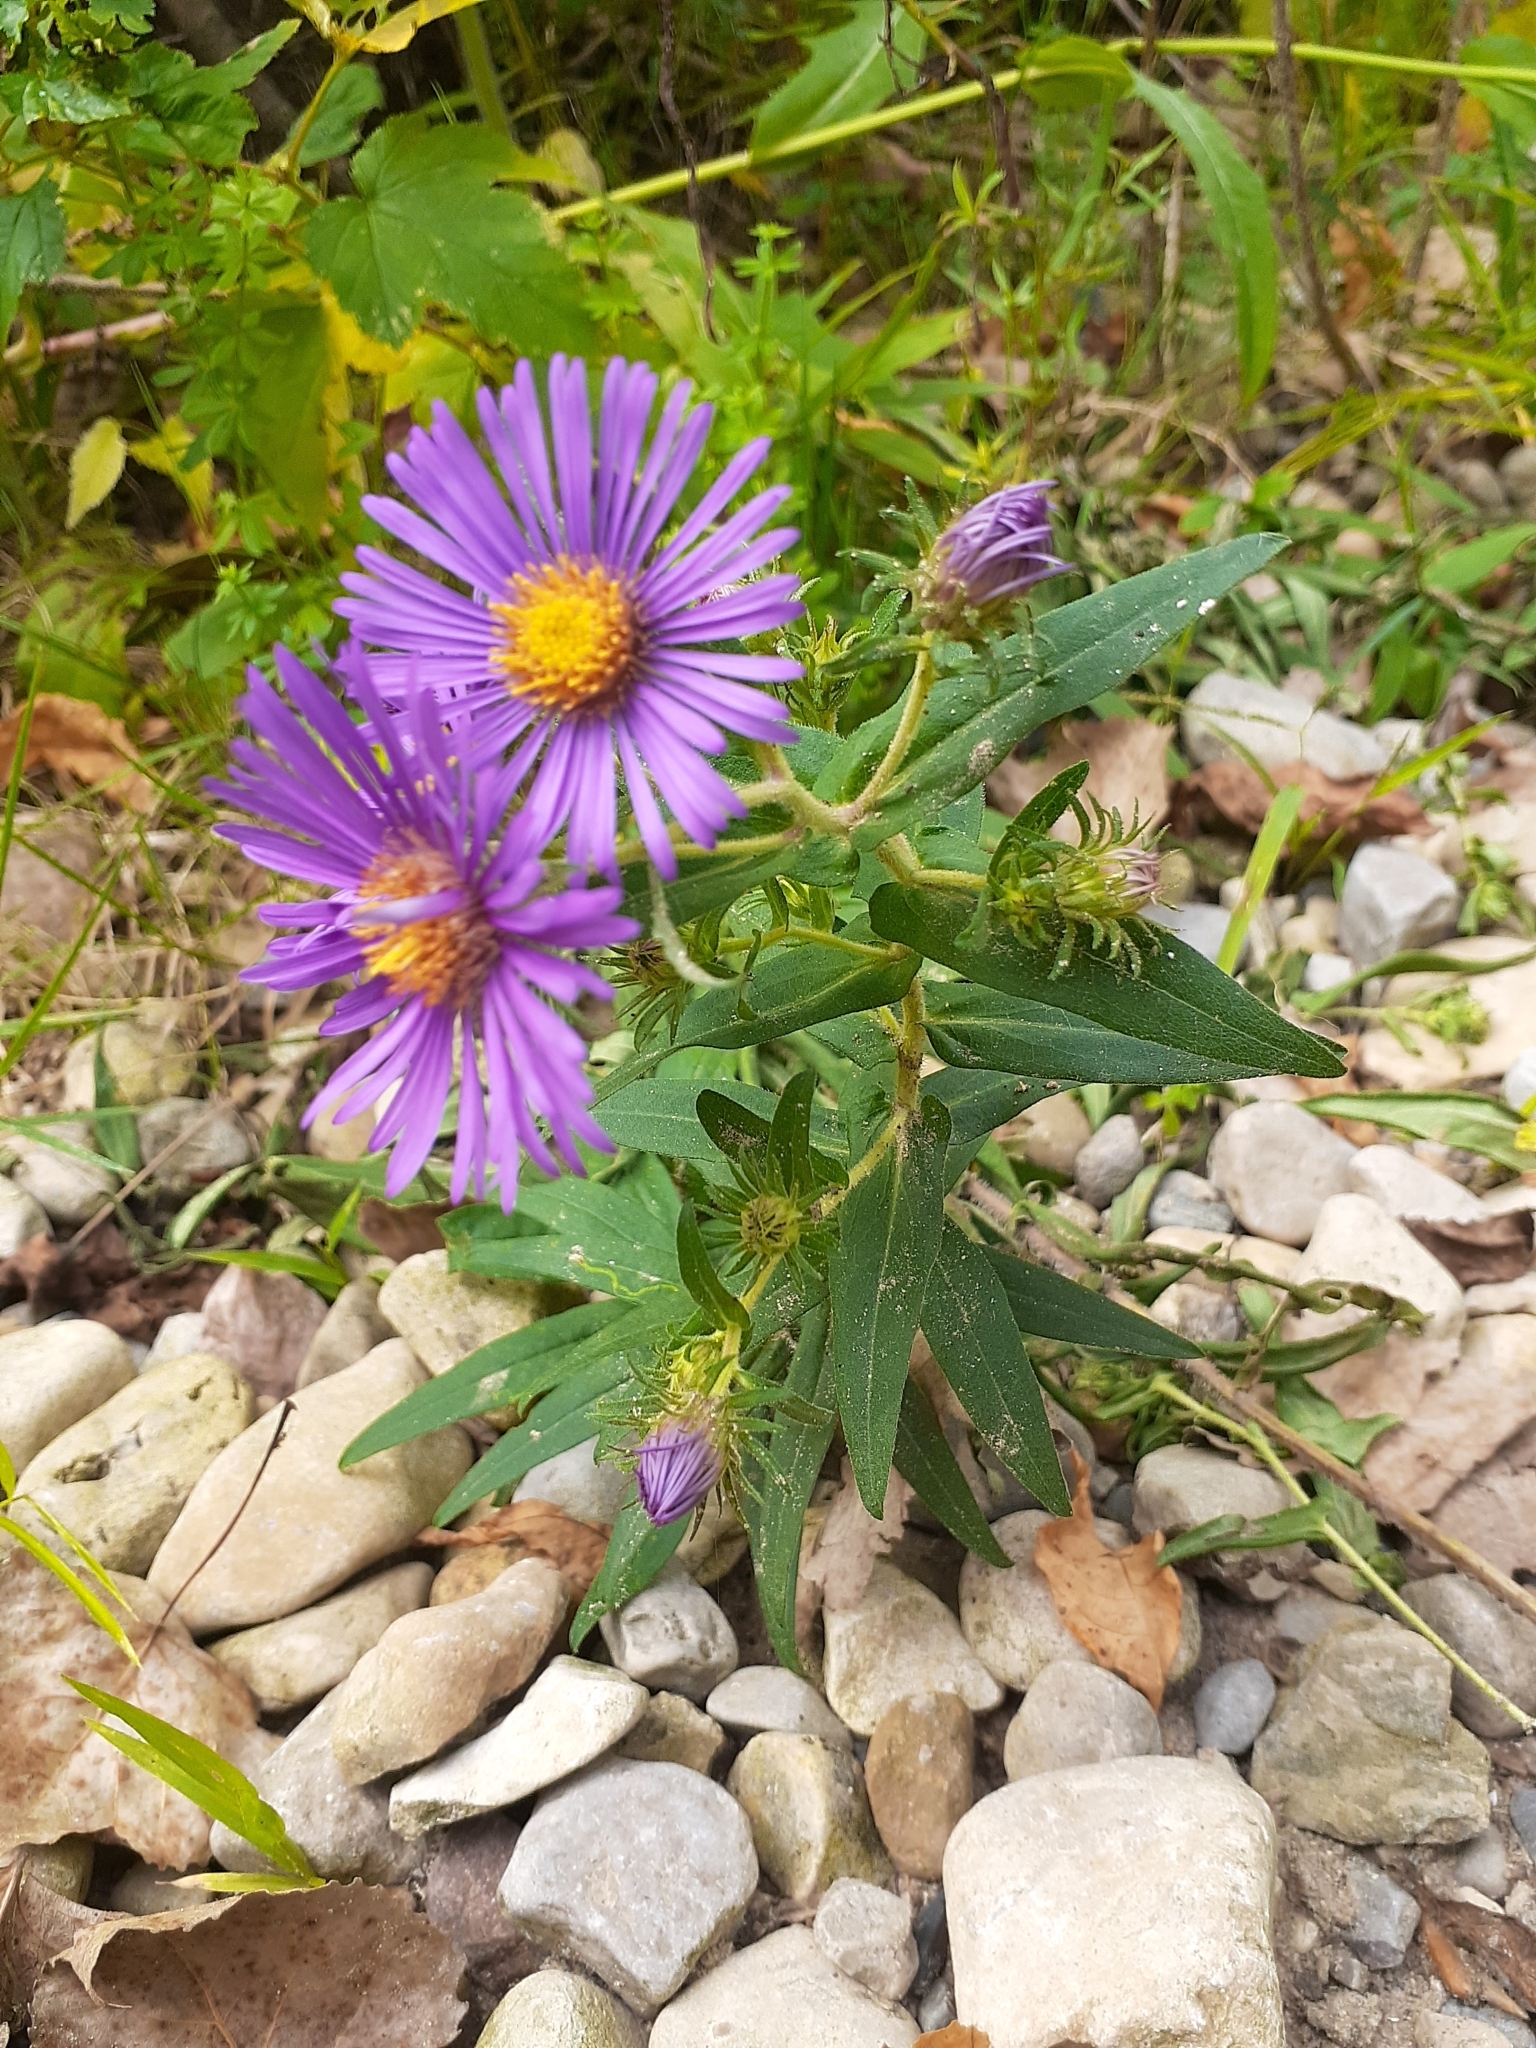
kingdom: Plantae
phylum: Tracheophyta
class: Magnoliopsida
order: Asterales
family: Asteraceae
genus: Symphyotrichum
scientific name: Symphyotrichum novae-angliae
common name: Michaelmas daisy
